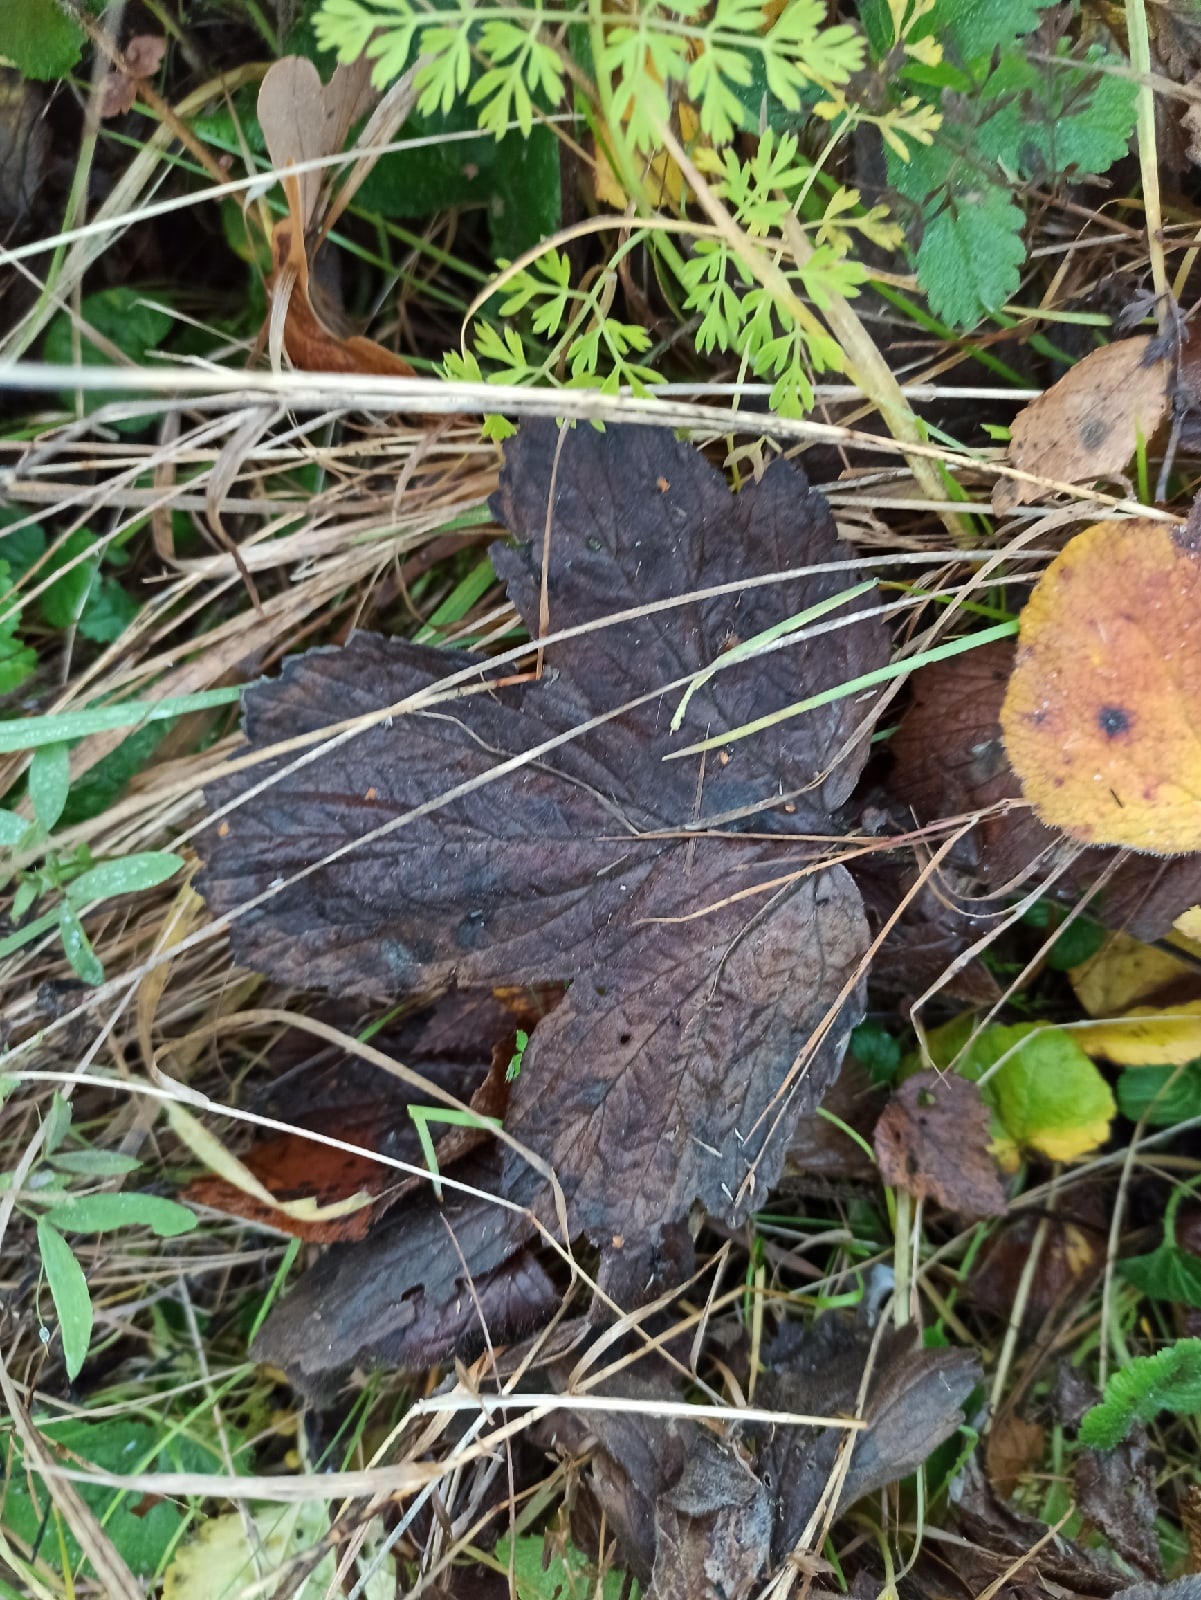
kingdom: Plantae
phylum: Tracheophyta
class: Magnoliopsida
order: Rosales
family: Rosaceae
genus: Geum
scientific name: Geum
